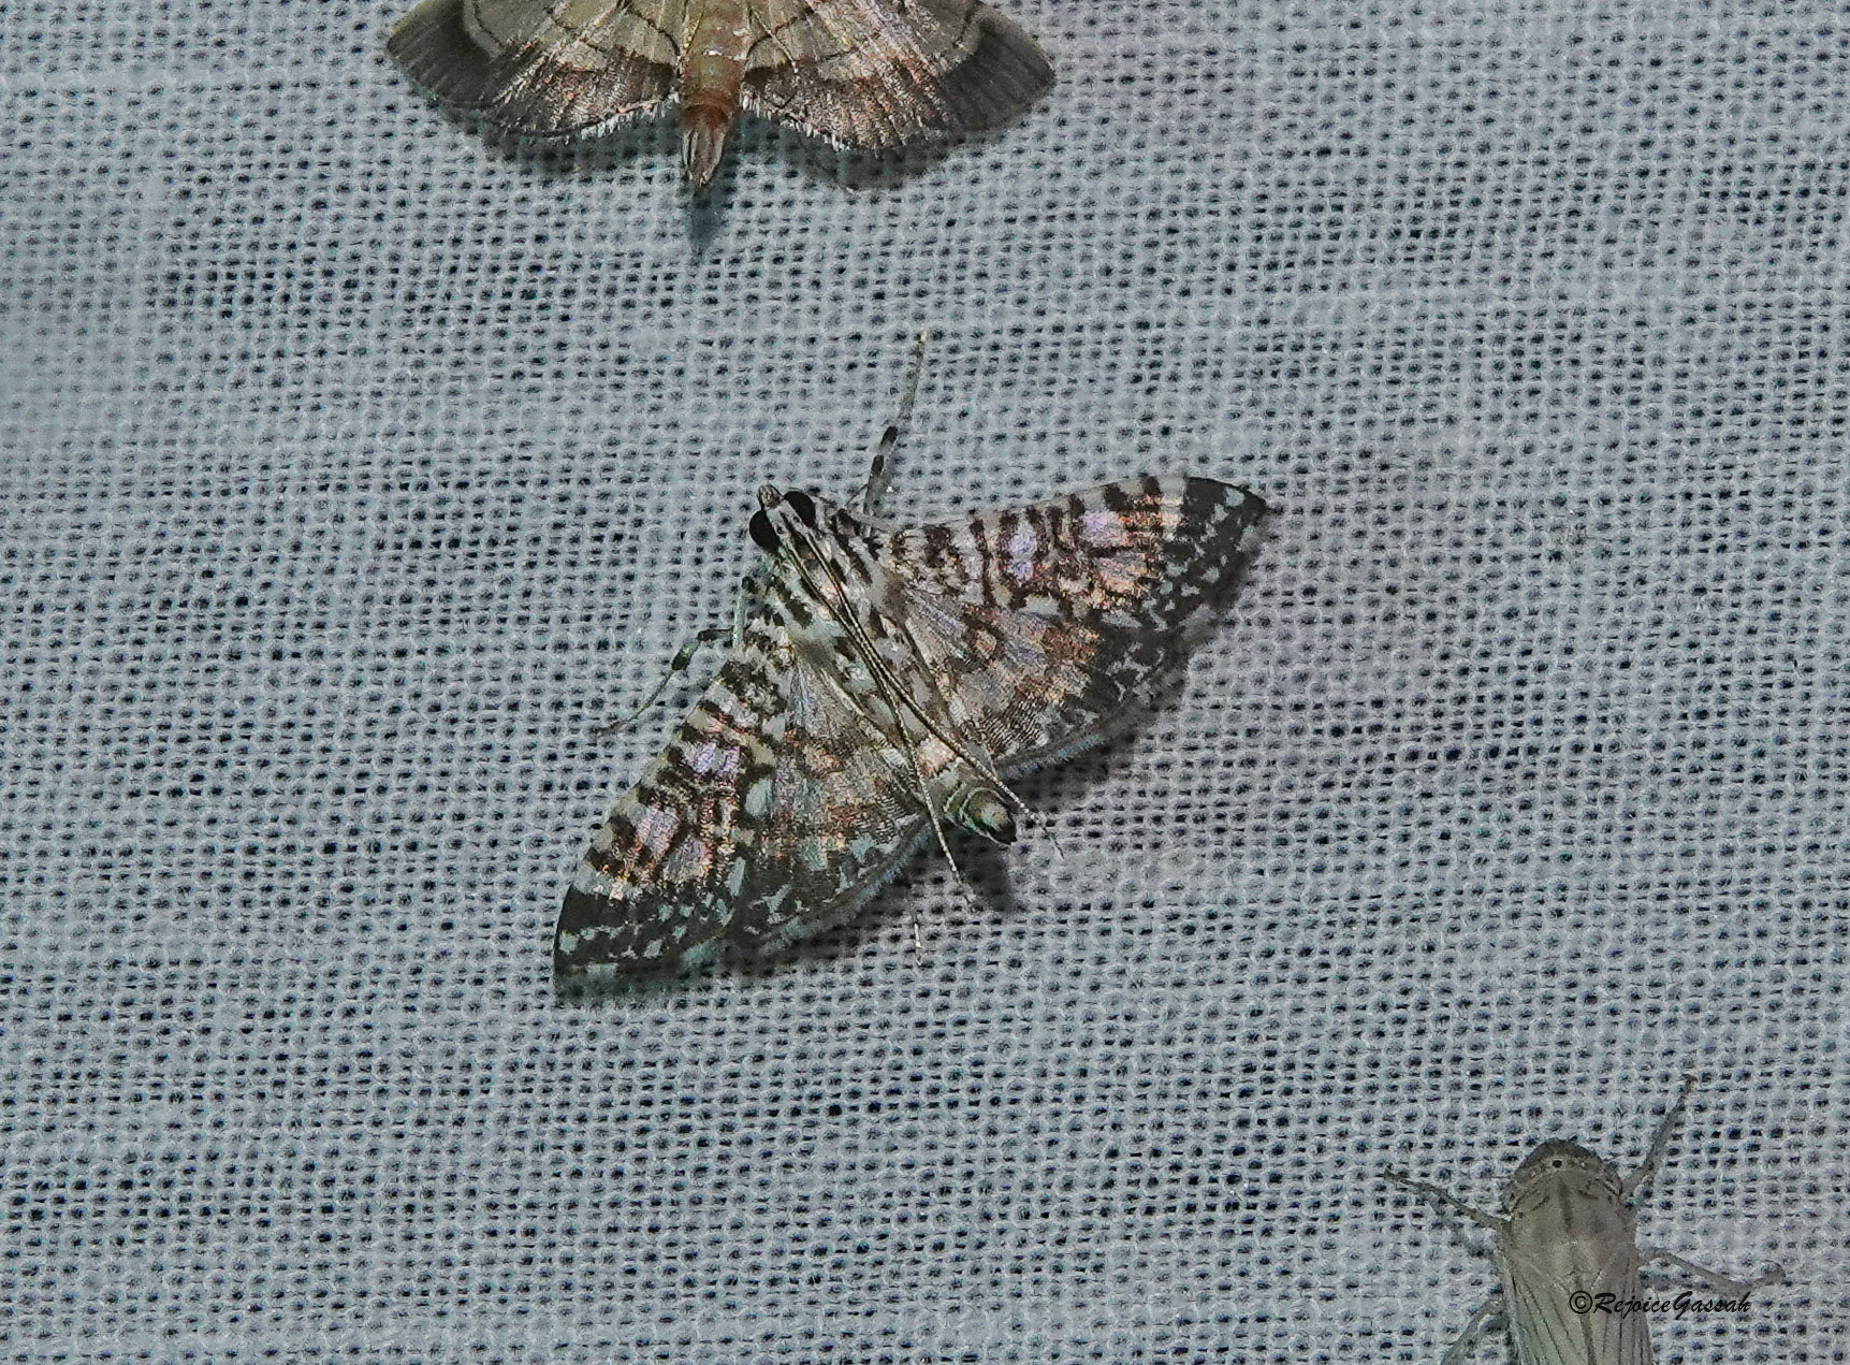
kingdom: Animalia
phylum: Arthropoda
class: Insecta
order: Lepidoptera
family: Crambidae
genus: Glyphodes
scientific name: Glyphodes onychinalis
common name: Swan plant moth
